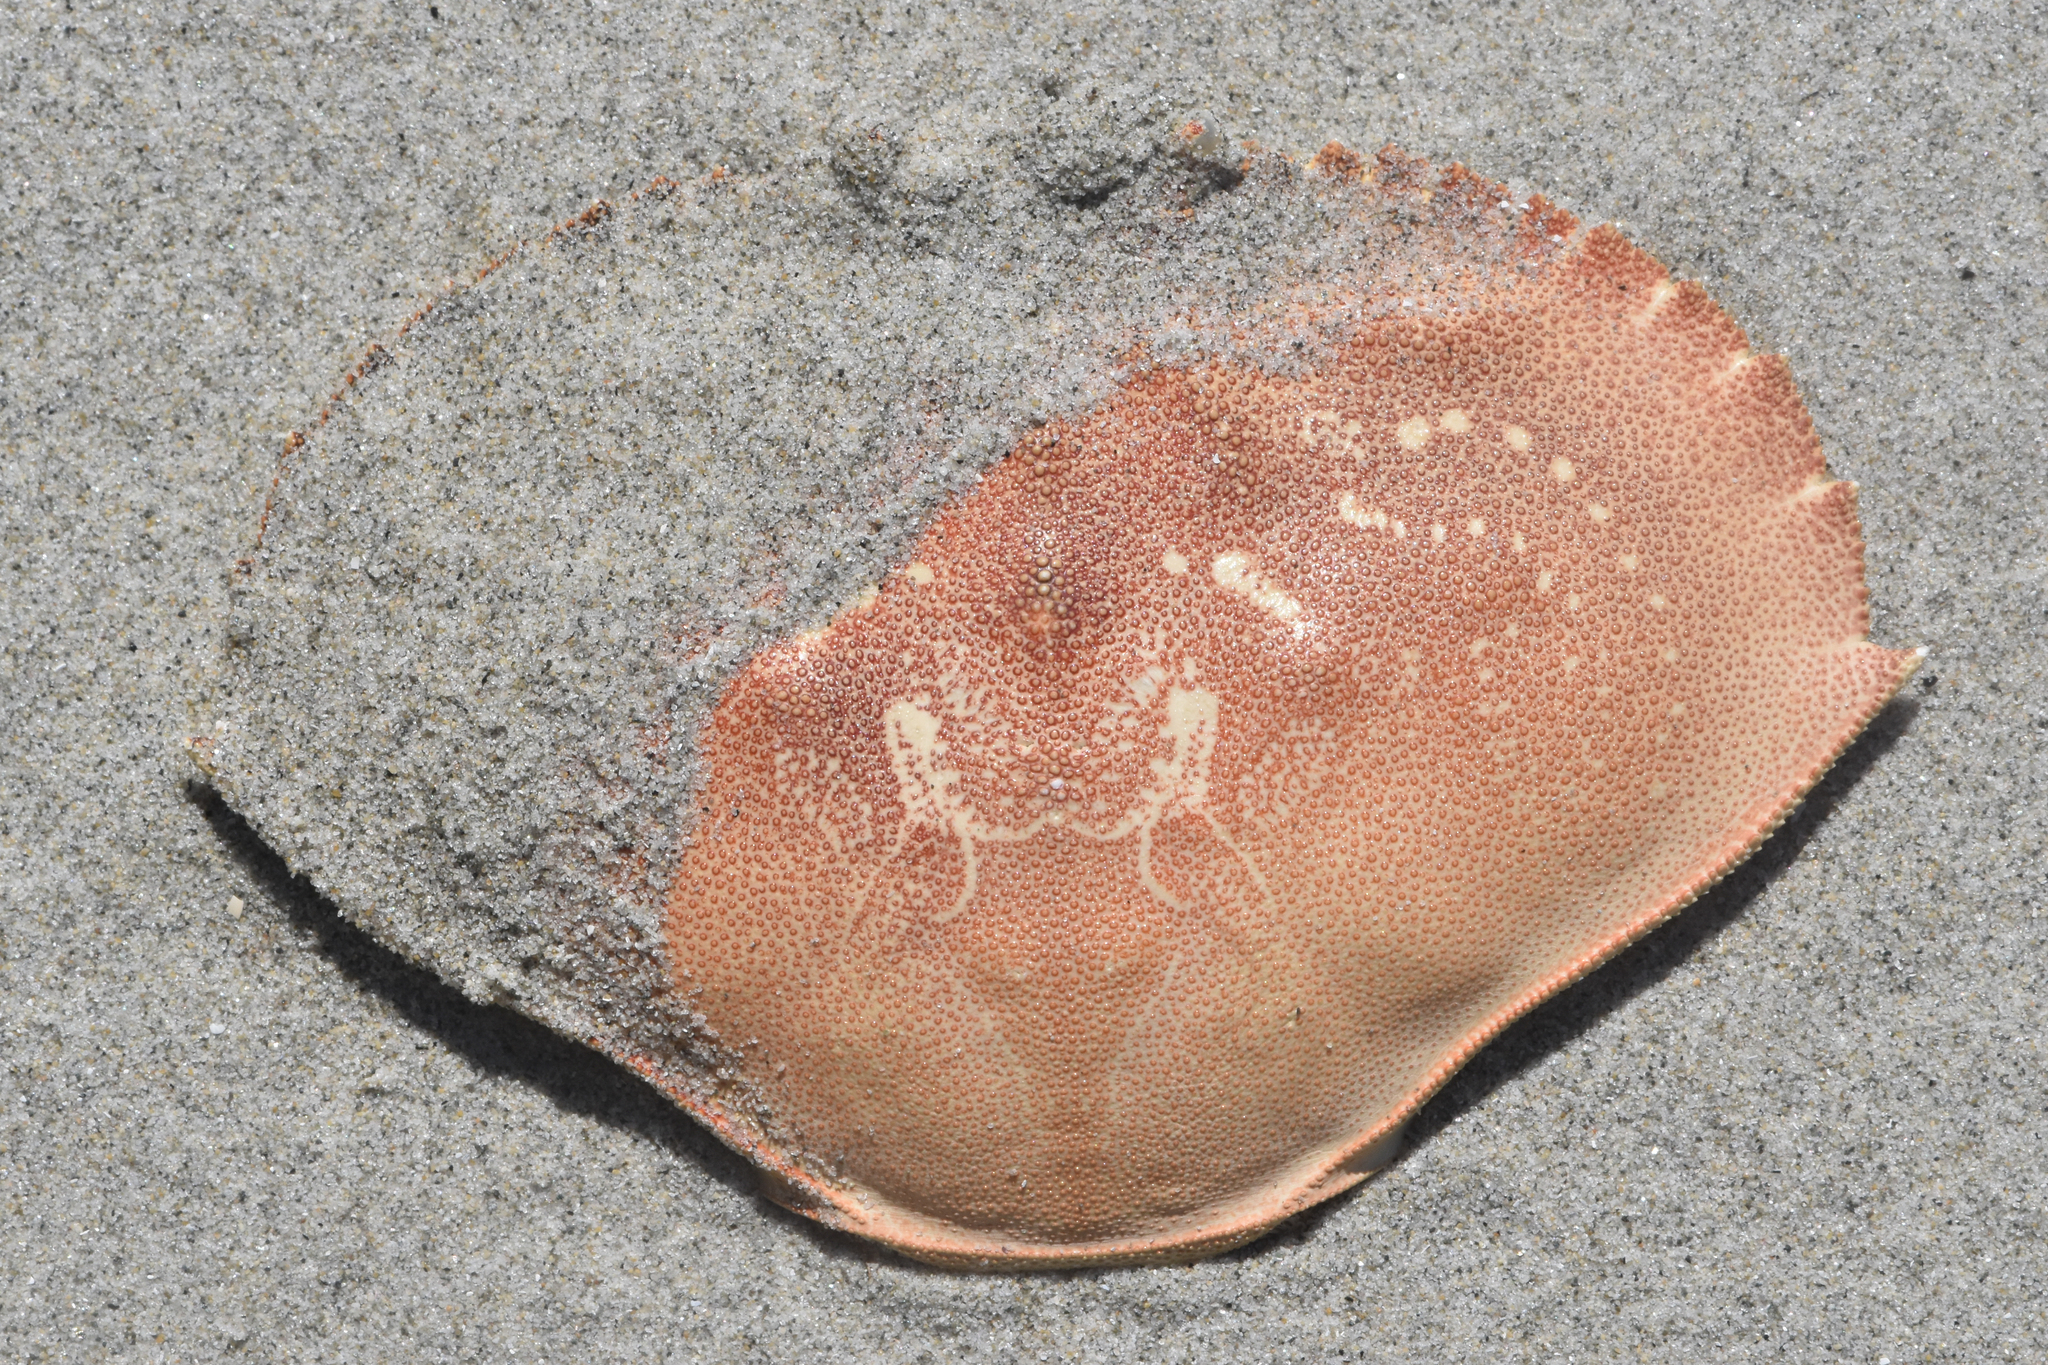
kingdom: Animalia
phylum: Arthropoda
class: Malacostraca
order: Decapoda
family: Cancridae
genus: Metacarcinus
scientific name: Metacarcinus magister
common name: Californian crab
